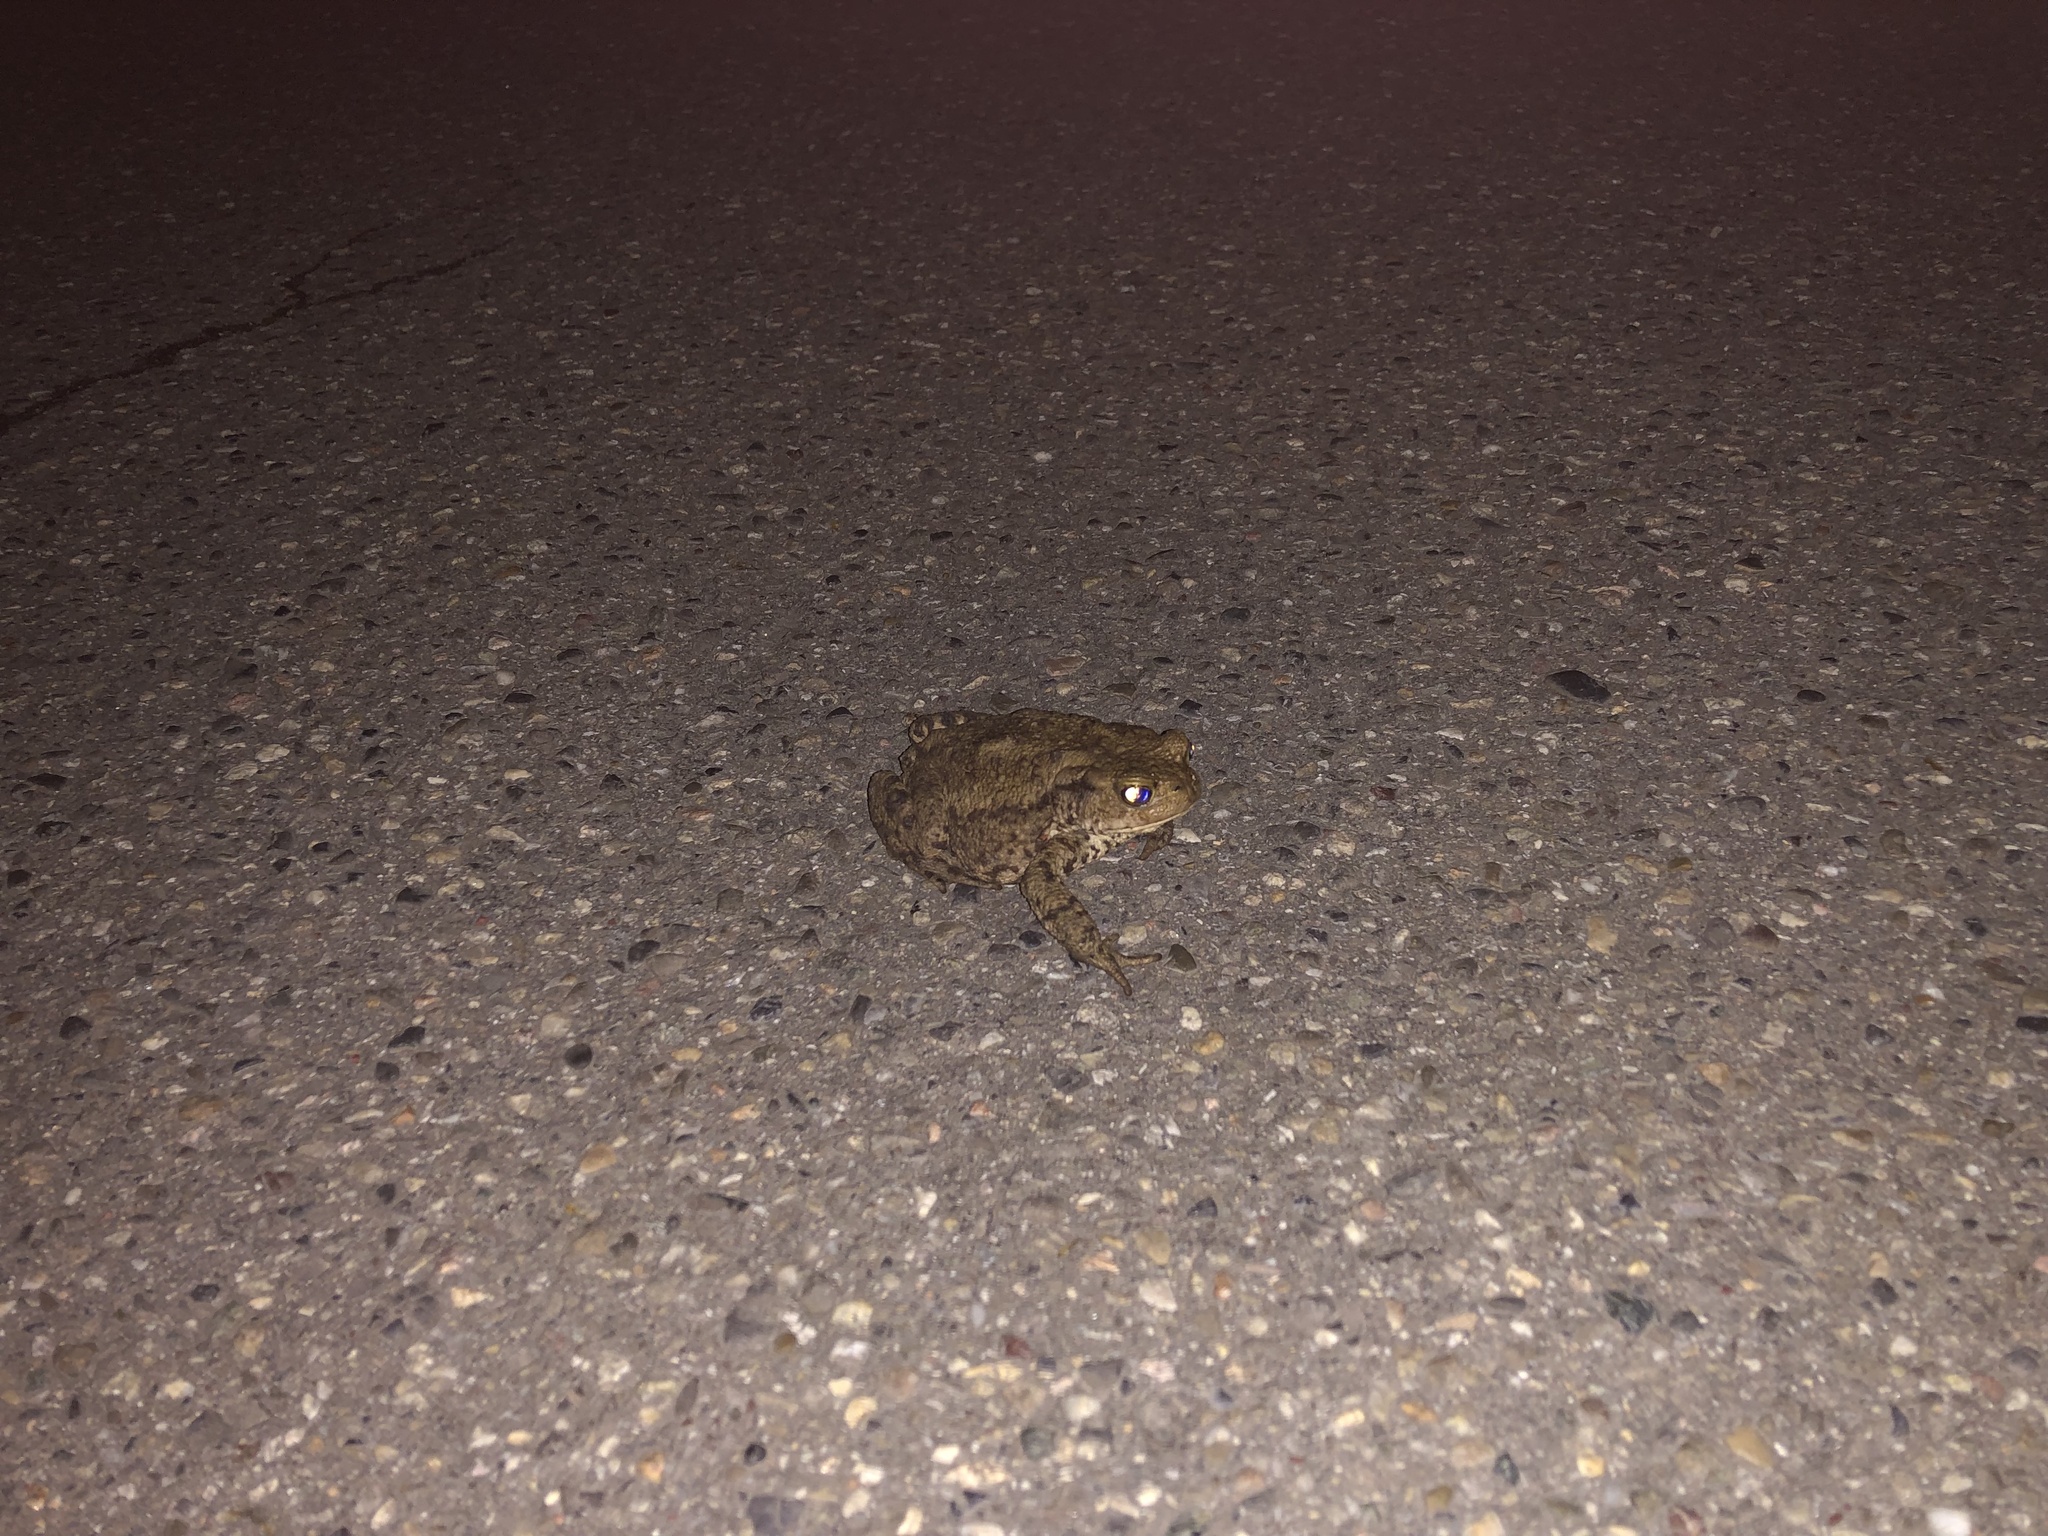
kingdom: Animalia
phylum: Chordata
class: Amphibia
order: Anura
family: Bufonidae
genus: Bufo
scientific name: Bufo bufo
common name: Common toad
